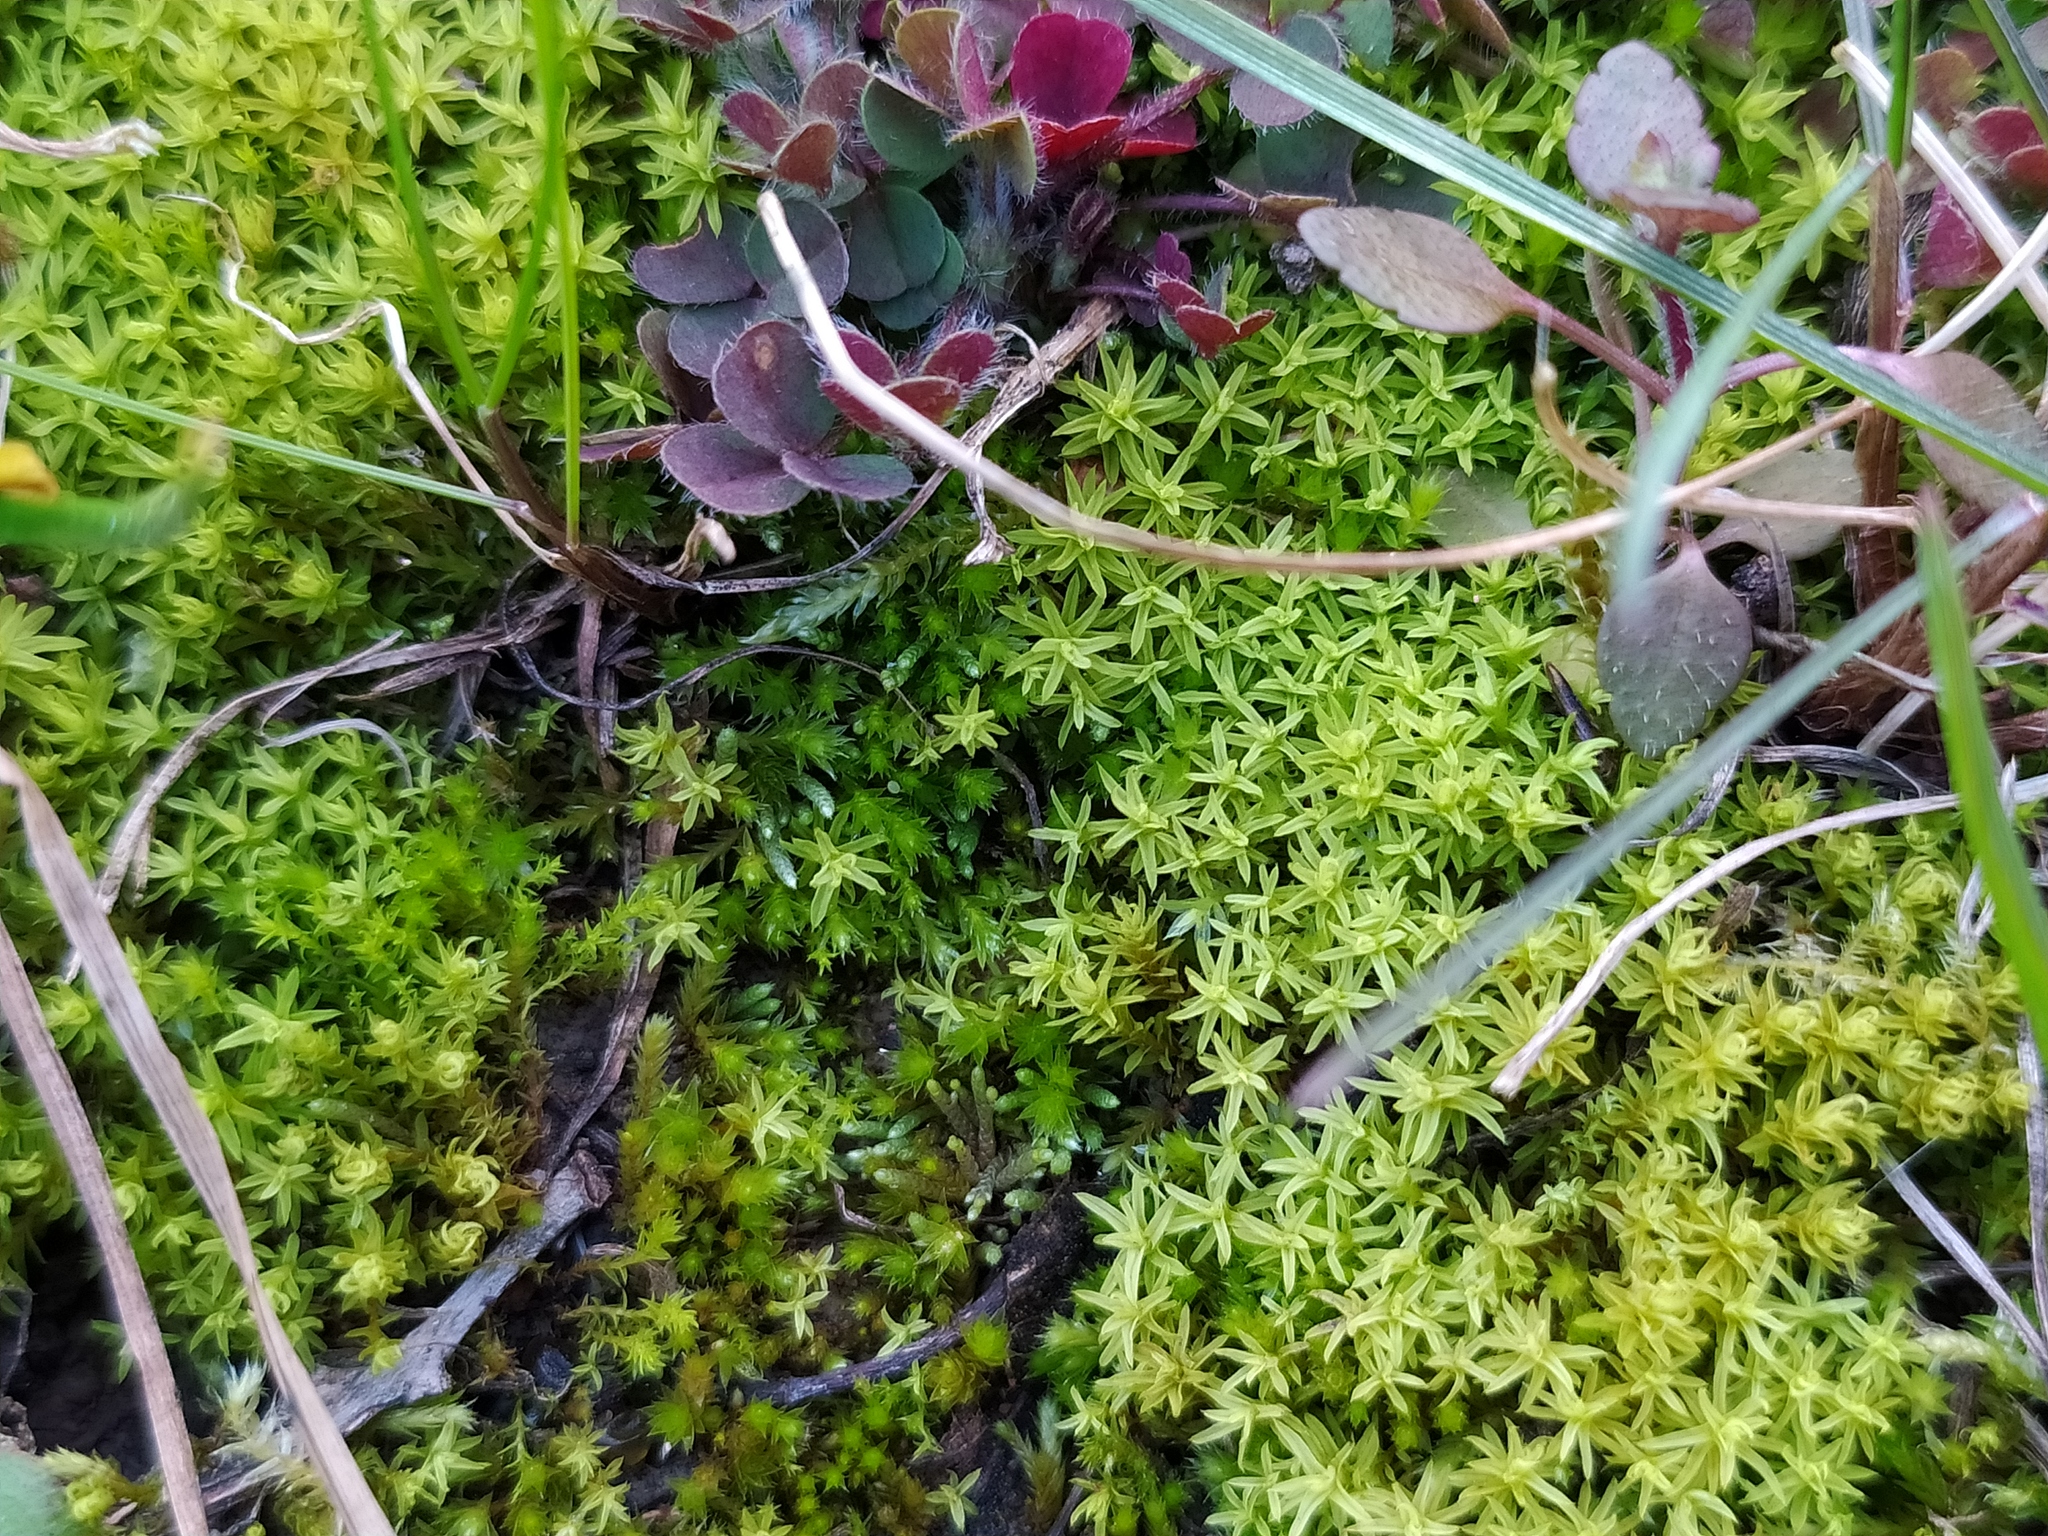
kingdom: Plantae
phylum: Bryophyta
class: Bryopsida
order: Pottiales
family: Pottiaceae
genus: Barbula
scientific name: Barbula unguiculata
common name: Prickly beard moss
